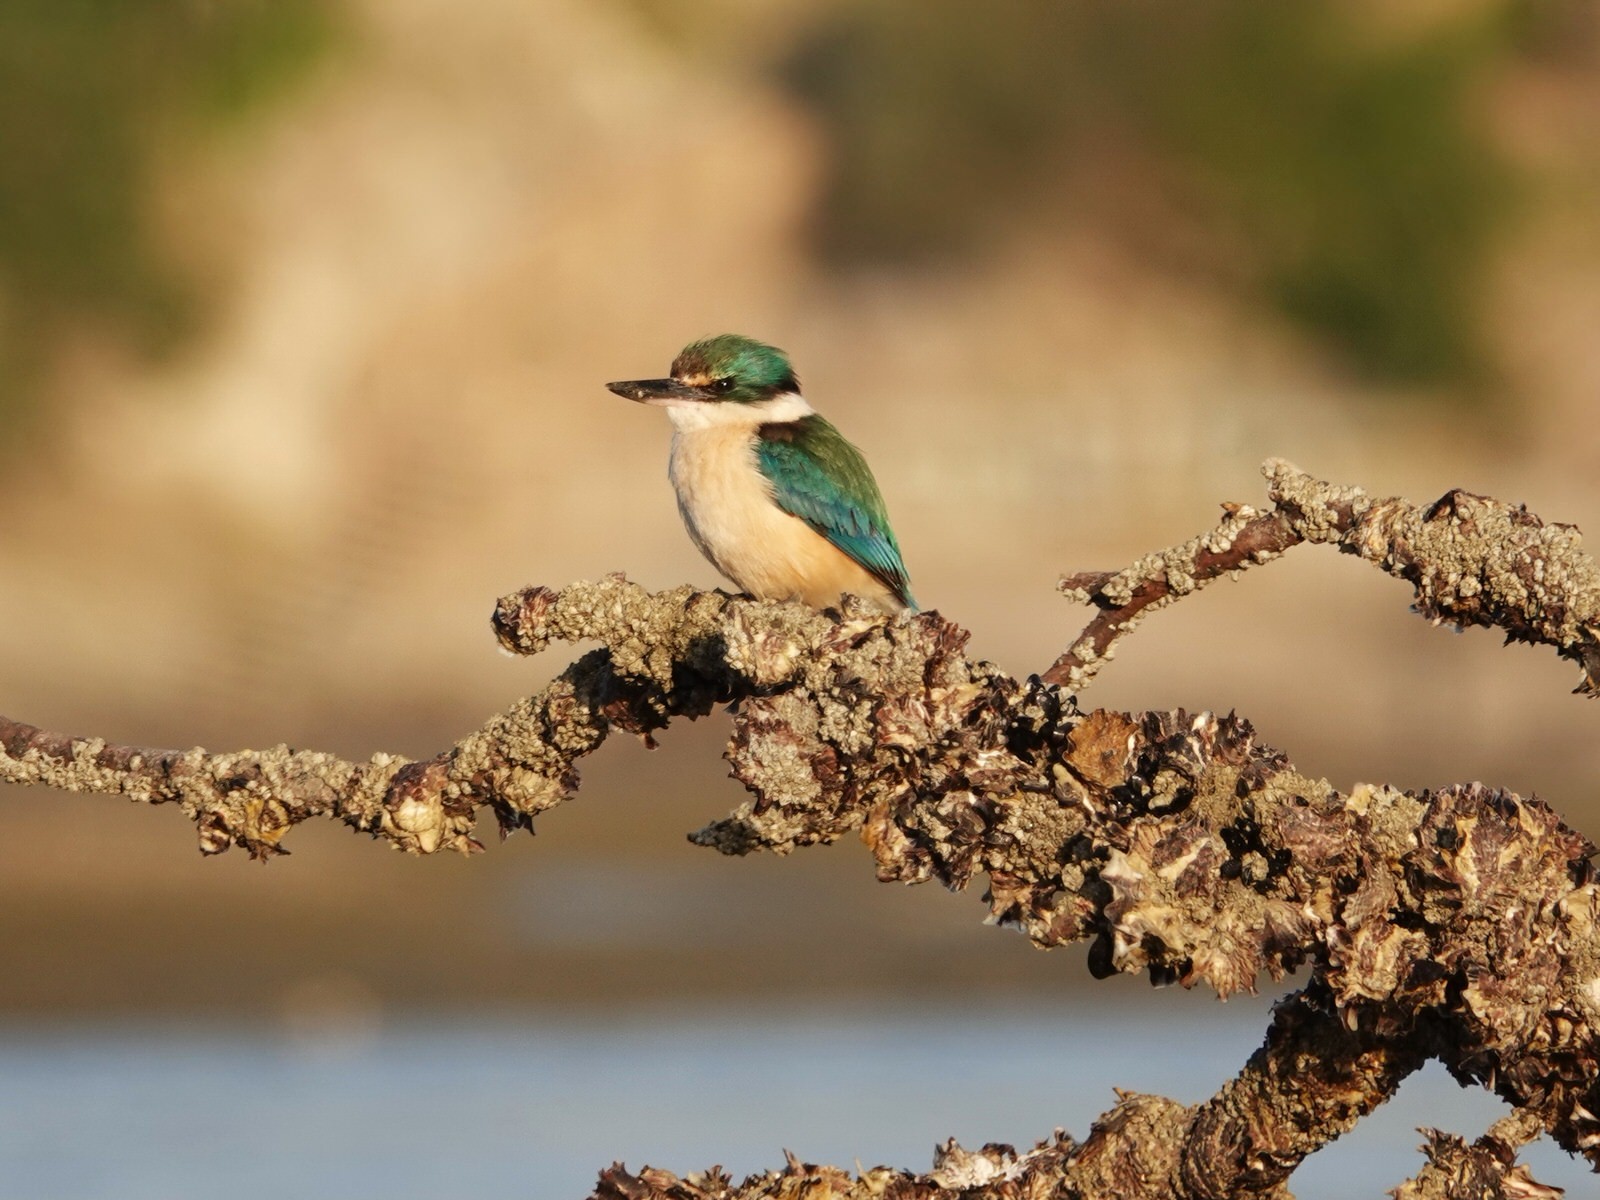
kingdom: Animalia
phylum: Chordata
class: Aves
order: Coraciiformes
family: Alcedinidae
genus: Todiramphus
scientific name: Todiramphus sanctus
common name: Sacred kingfisher
